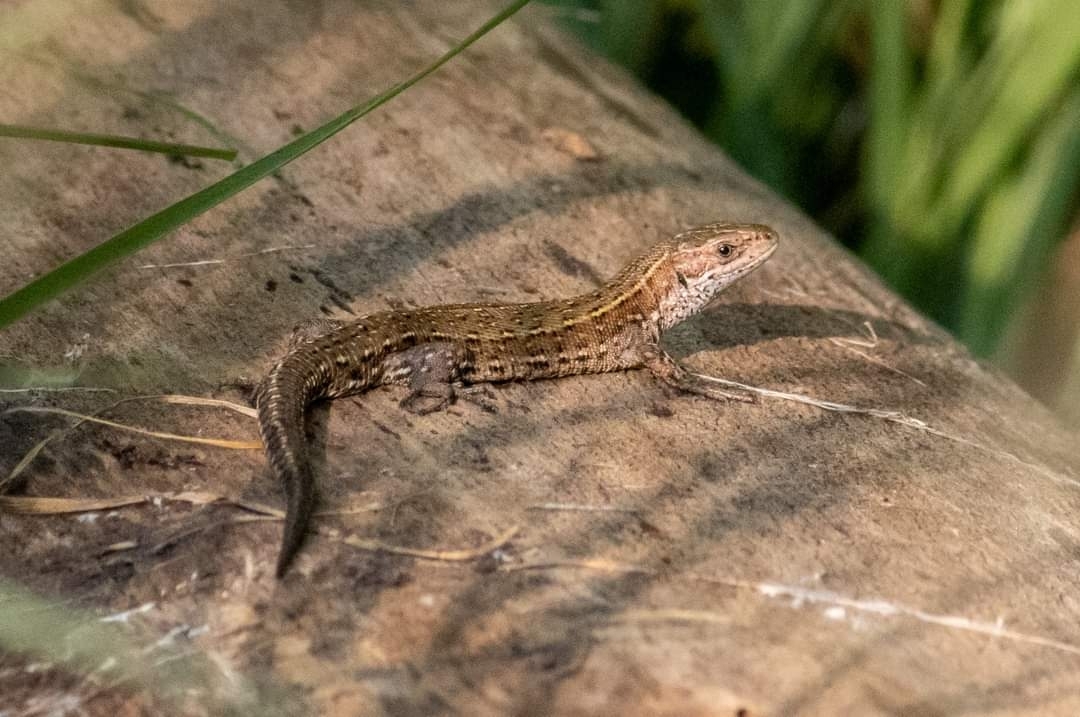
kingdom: Animalia
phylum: Chordata
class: Squamata
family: Lacertidae
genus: Zootoca
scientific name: Zootoca vivipara
